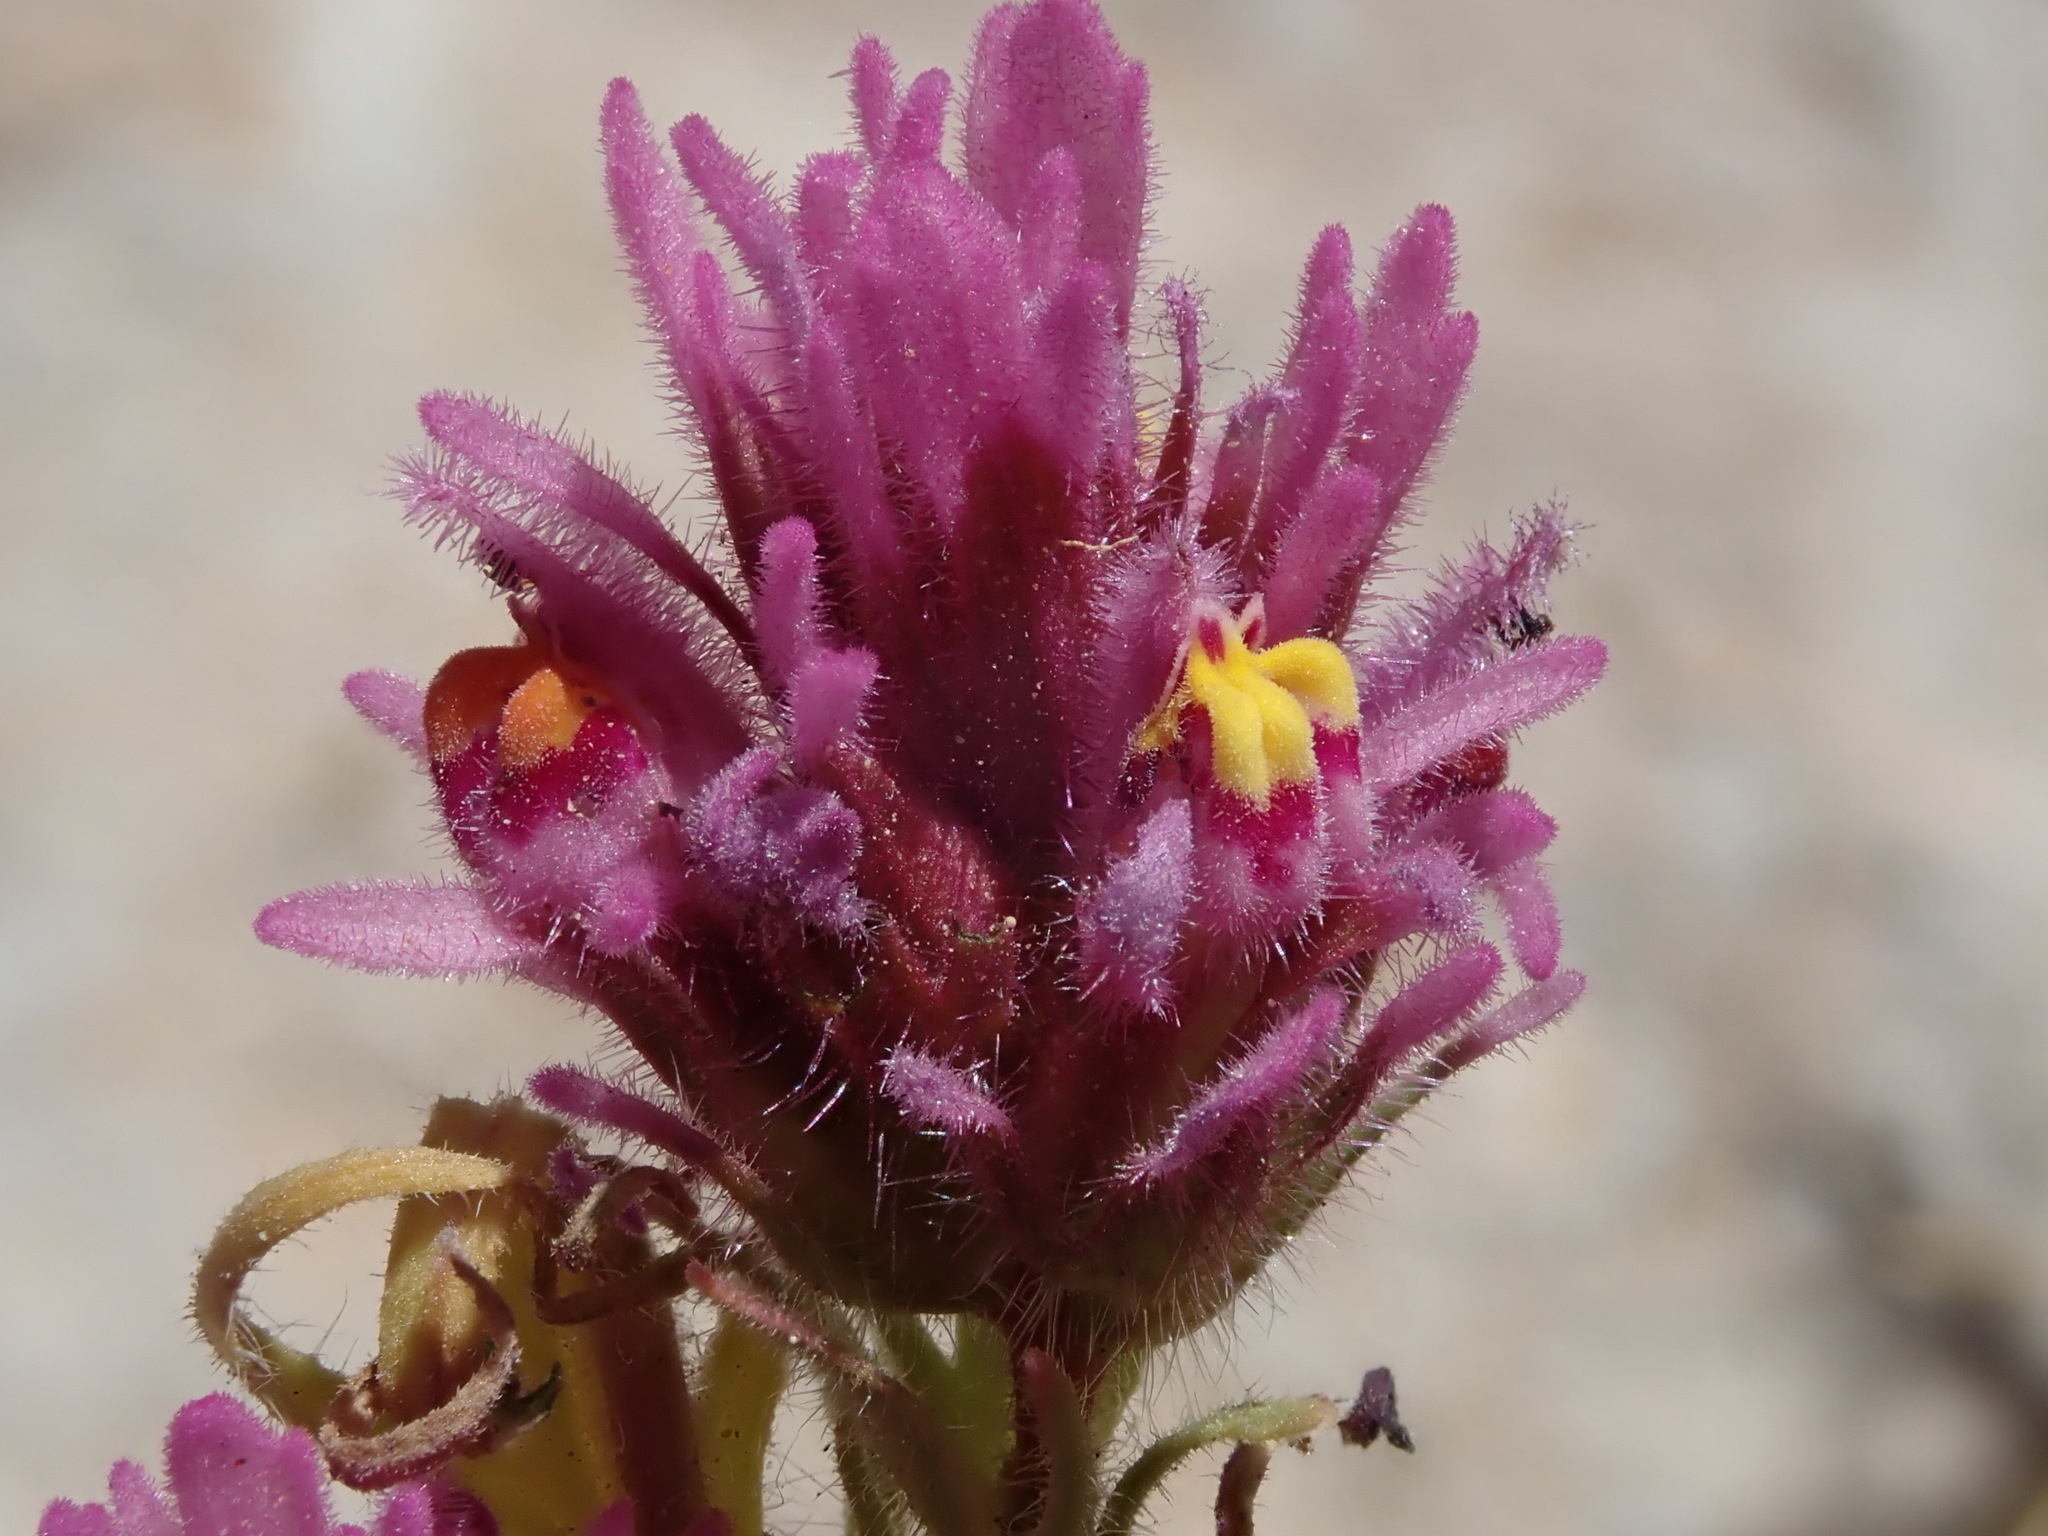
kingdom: Plantae
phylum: Tracheophyta
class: Magnoliopsida
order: Lamiales
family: Orobanchaceae
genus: Castilleja
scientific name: Castilleja exserta
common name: Purple owl-clover
